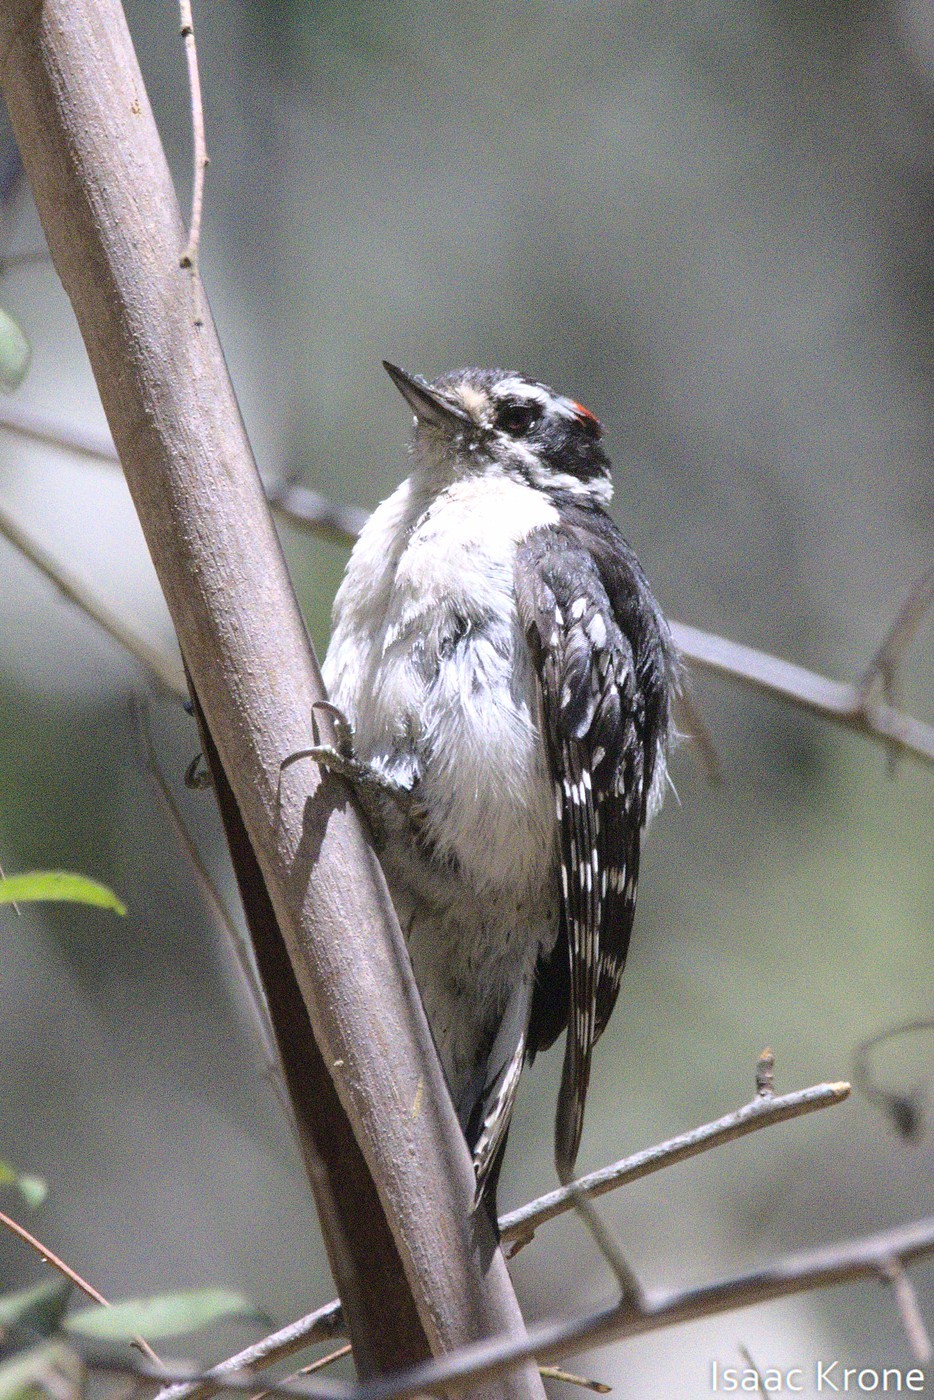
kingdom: Animalia
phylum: Chordata
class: Aves
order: Piciformes
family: Picidae
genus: Leuconotopicus
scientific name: Leuconotopicus villosus
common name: Hairy woodpecker
